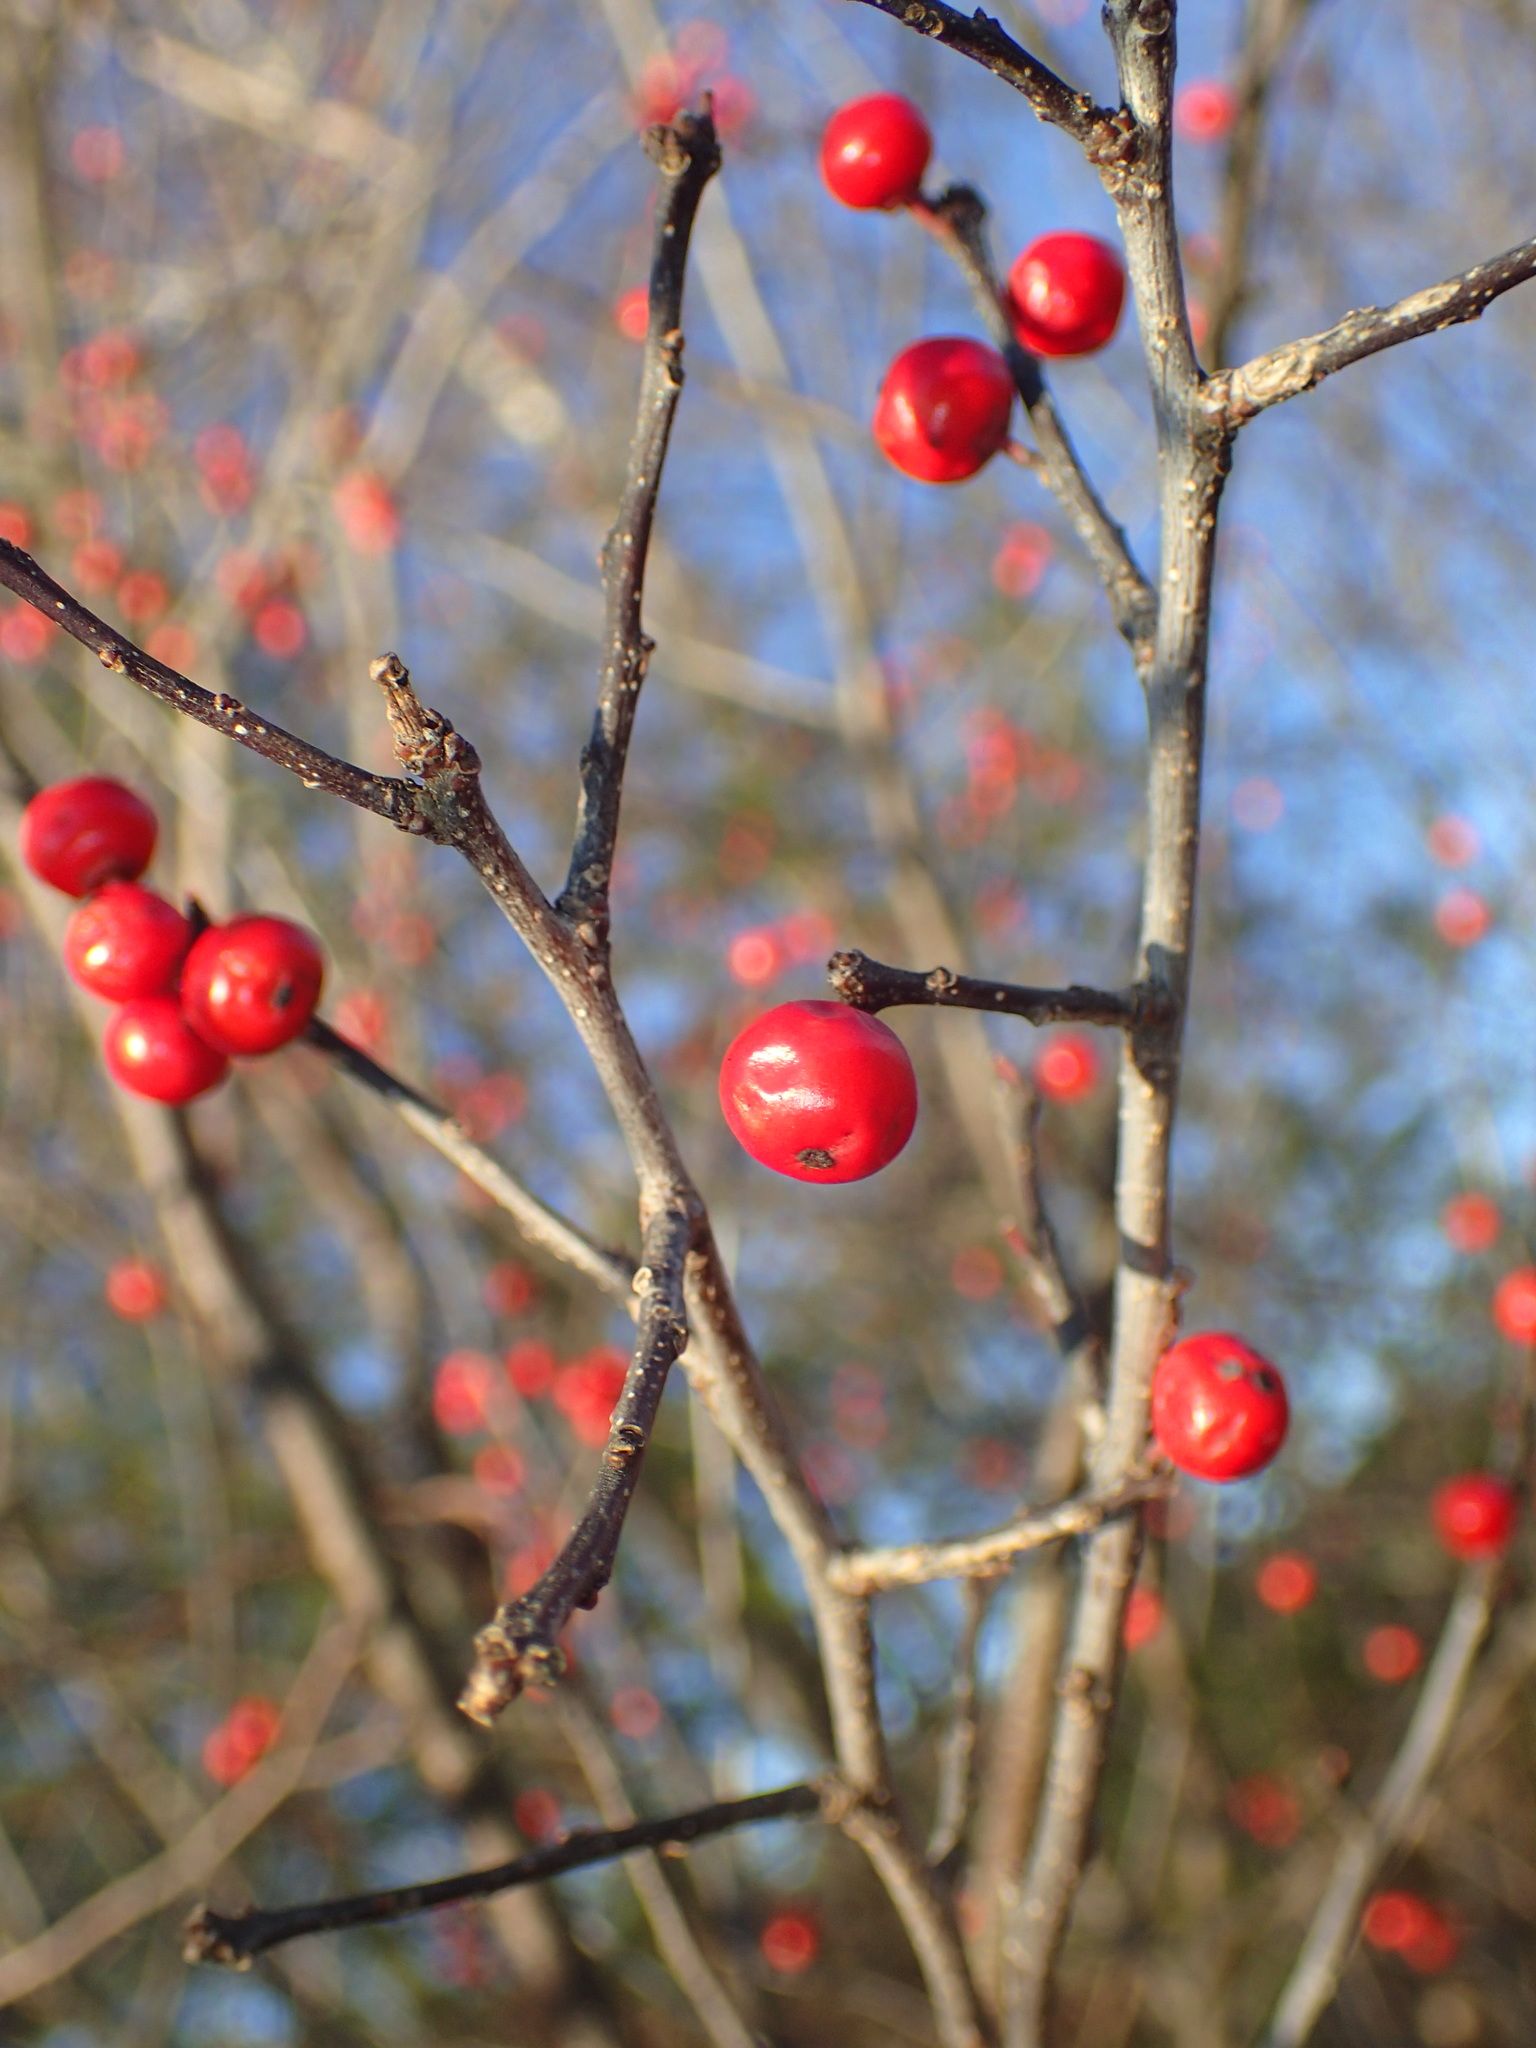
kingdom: Plantae
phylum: Tracheophyta
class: Magnoliopsida
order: Aquifoliales
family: Aquifoliaceae
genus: Ilex
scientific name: Ilex verticillata
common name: Virginia winterberry
